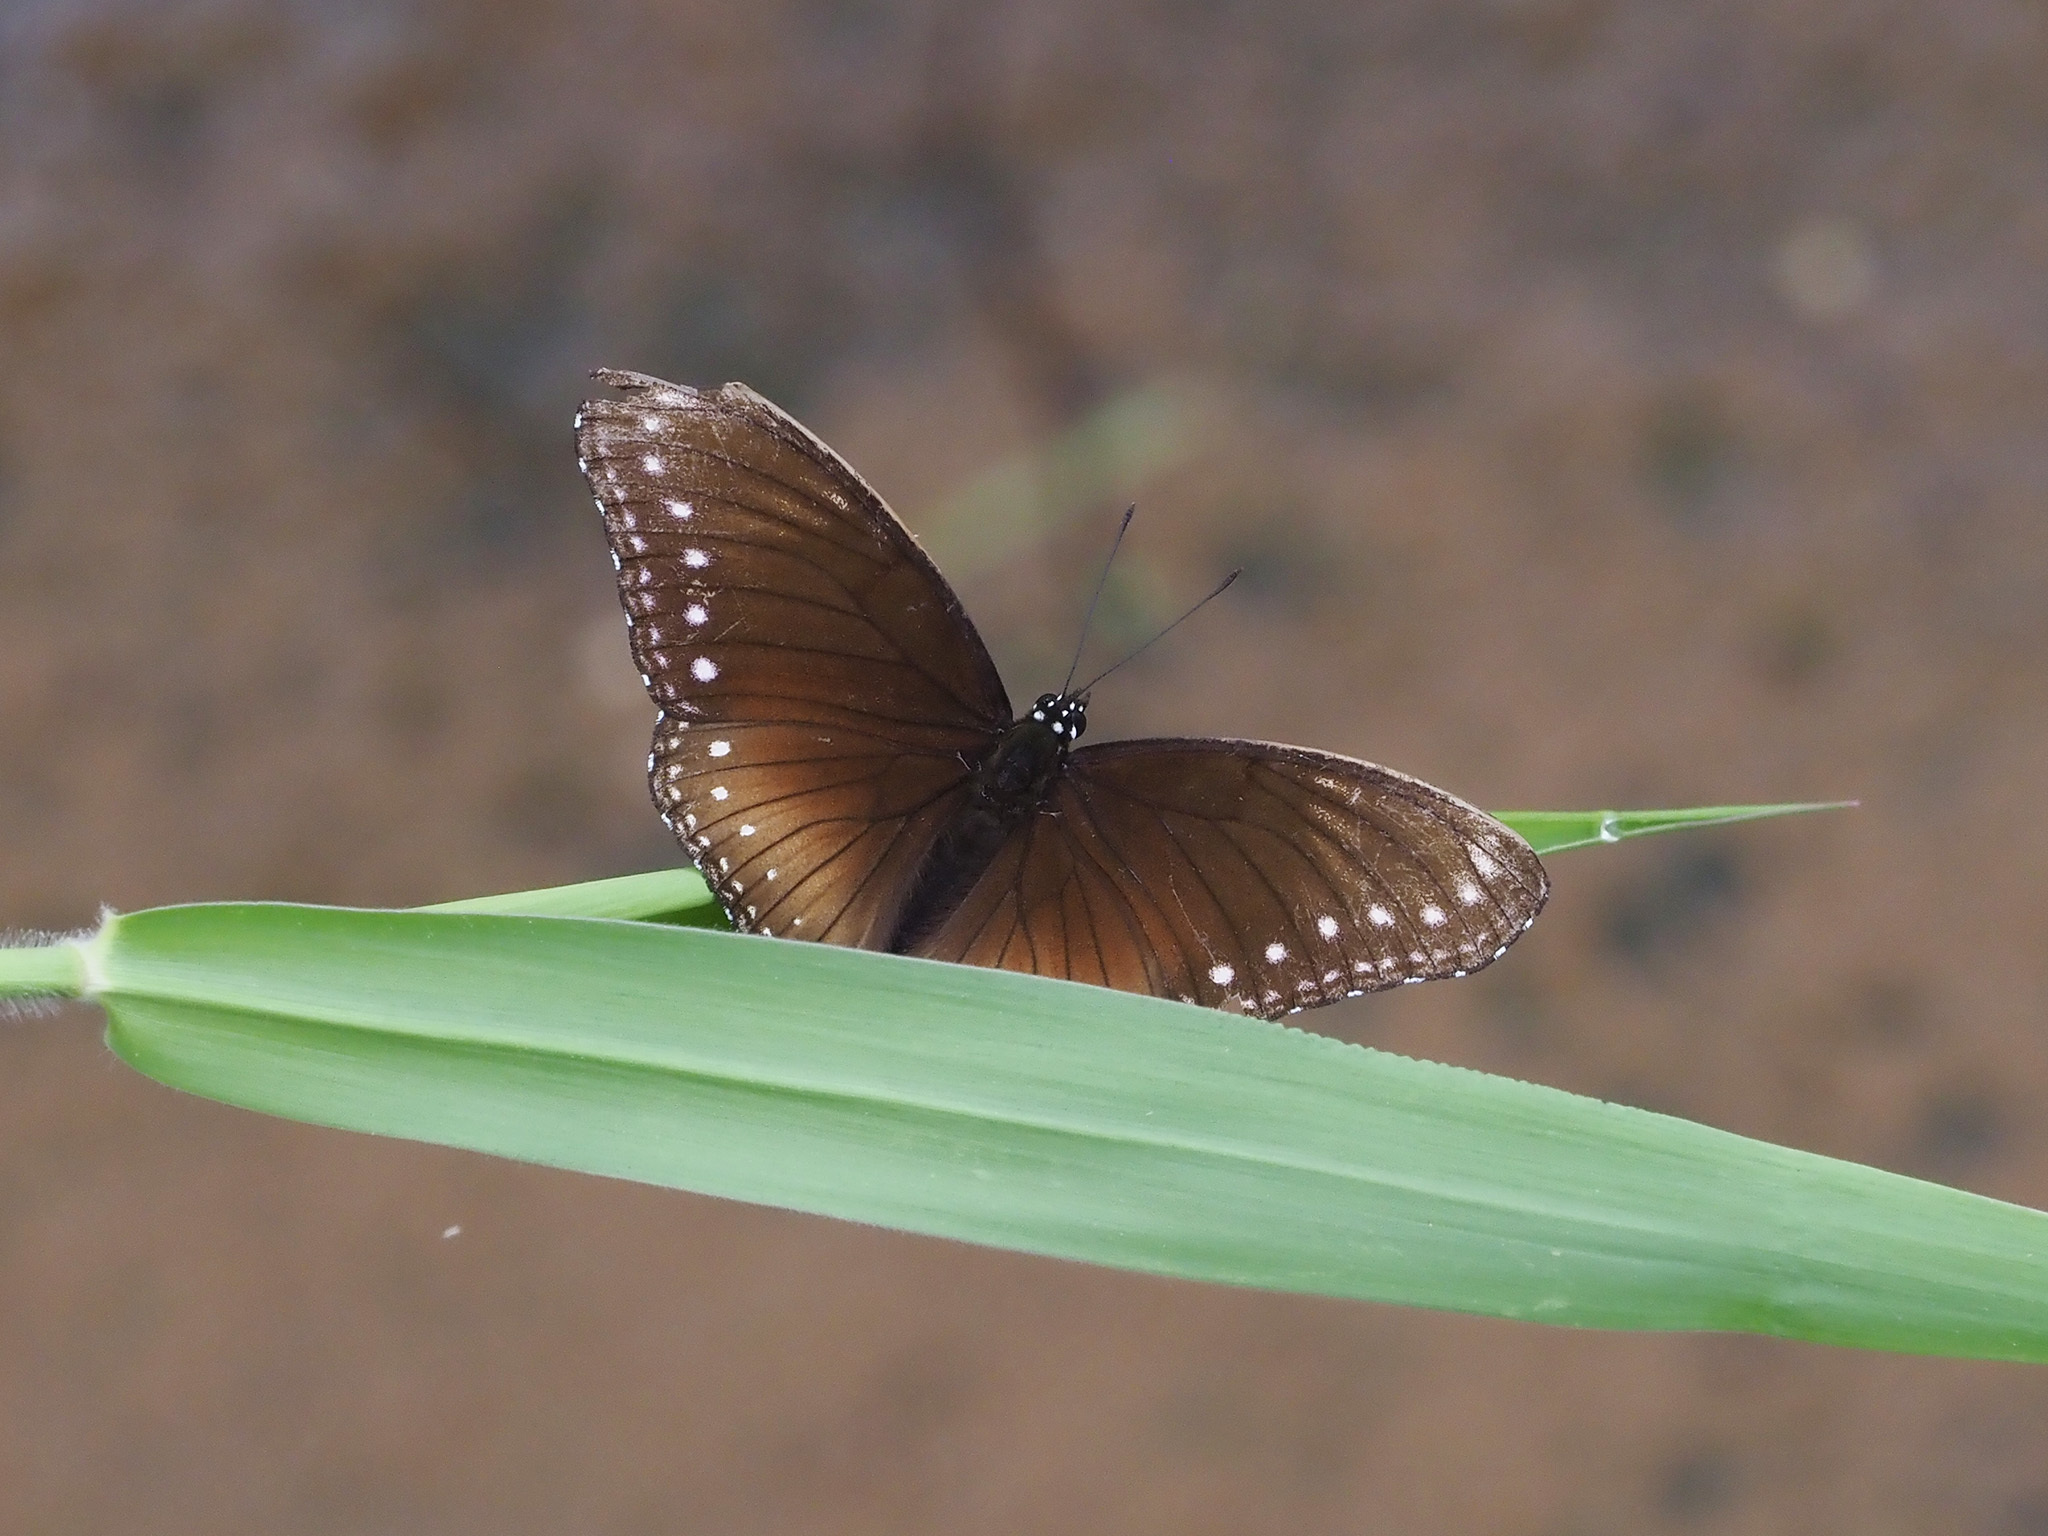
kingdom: Animalia
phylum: Arthropoda
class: Insecta
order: Lepidoptera
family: Nymphalidae
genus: Hypolimnas
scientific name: Hypolimnas anomala
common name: Malayan eggfly
